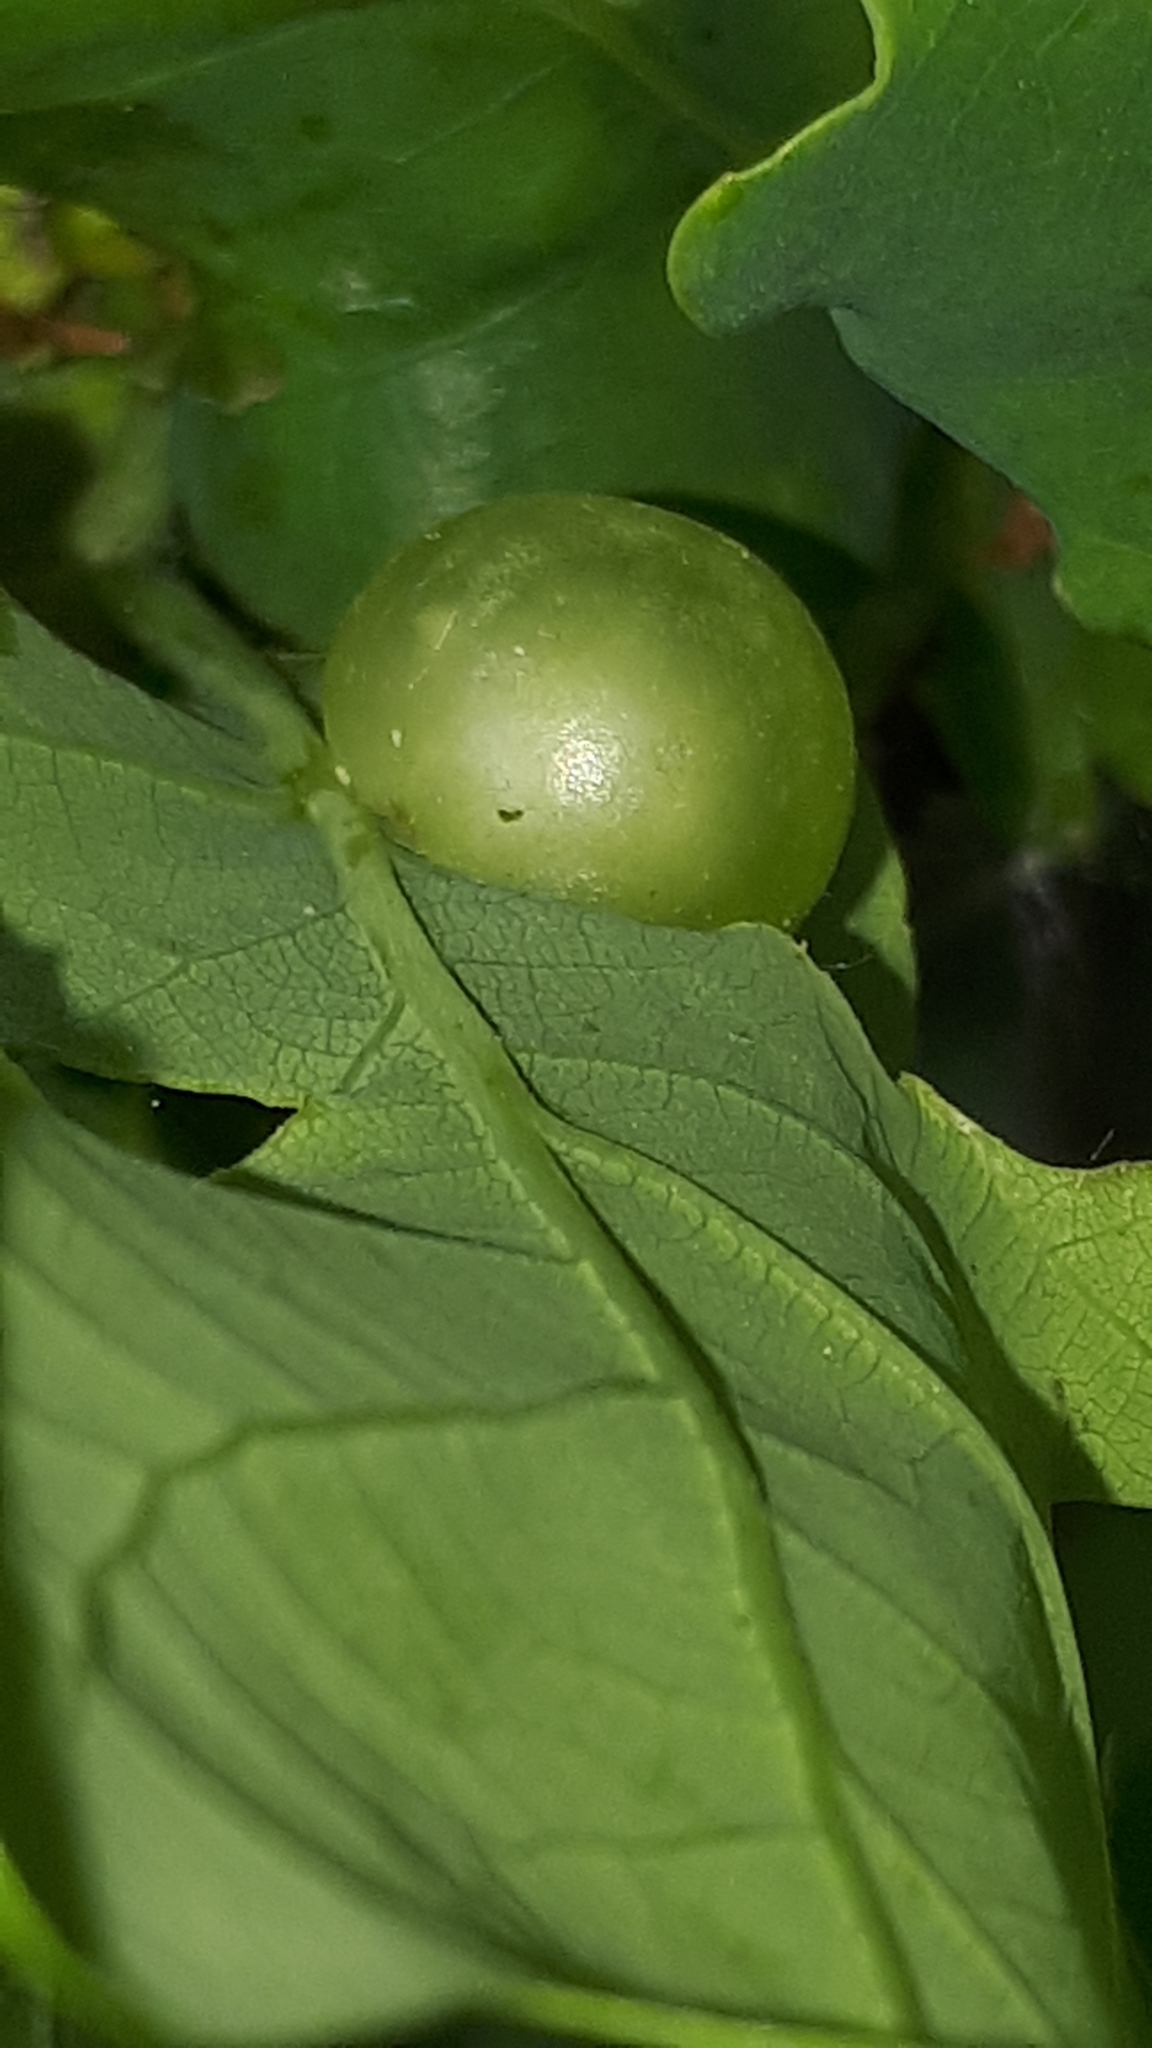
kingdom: Animalia
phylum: Arthropoda
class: Insecta
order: Hymenoptera
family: Cynipidae
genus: Neuroterus
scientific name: Neuroterus quercusbaccarum
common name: Common spangle gall
